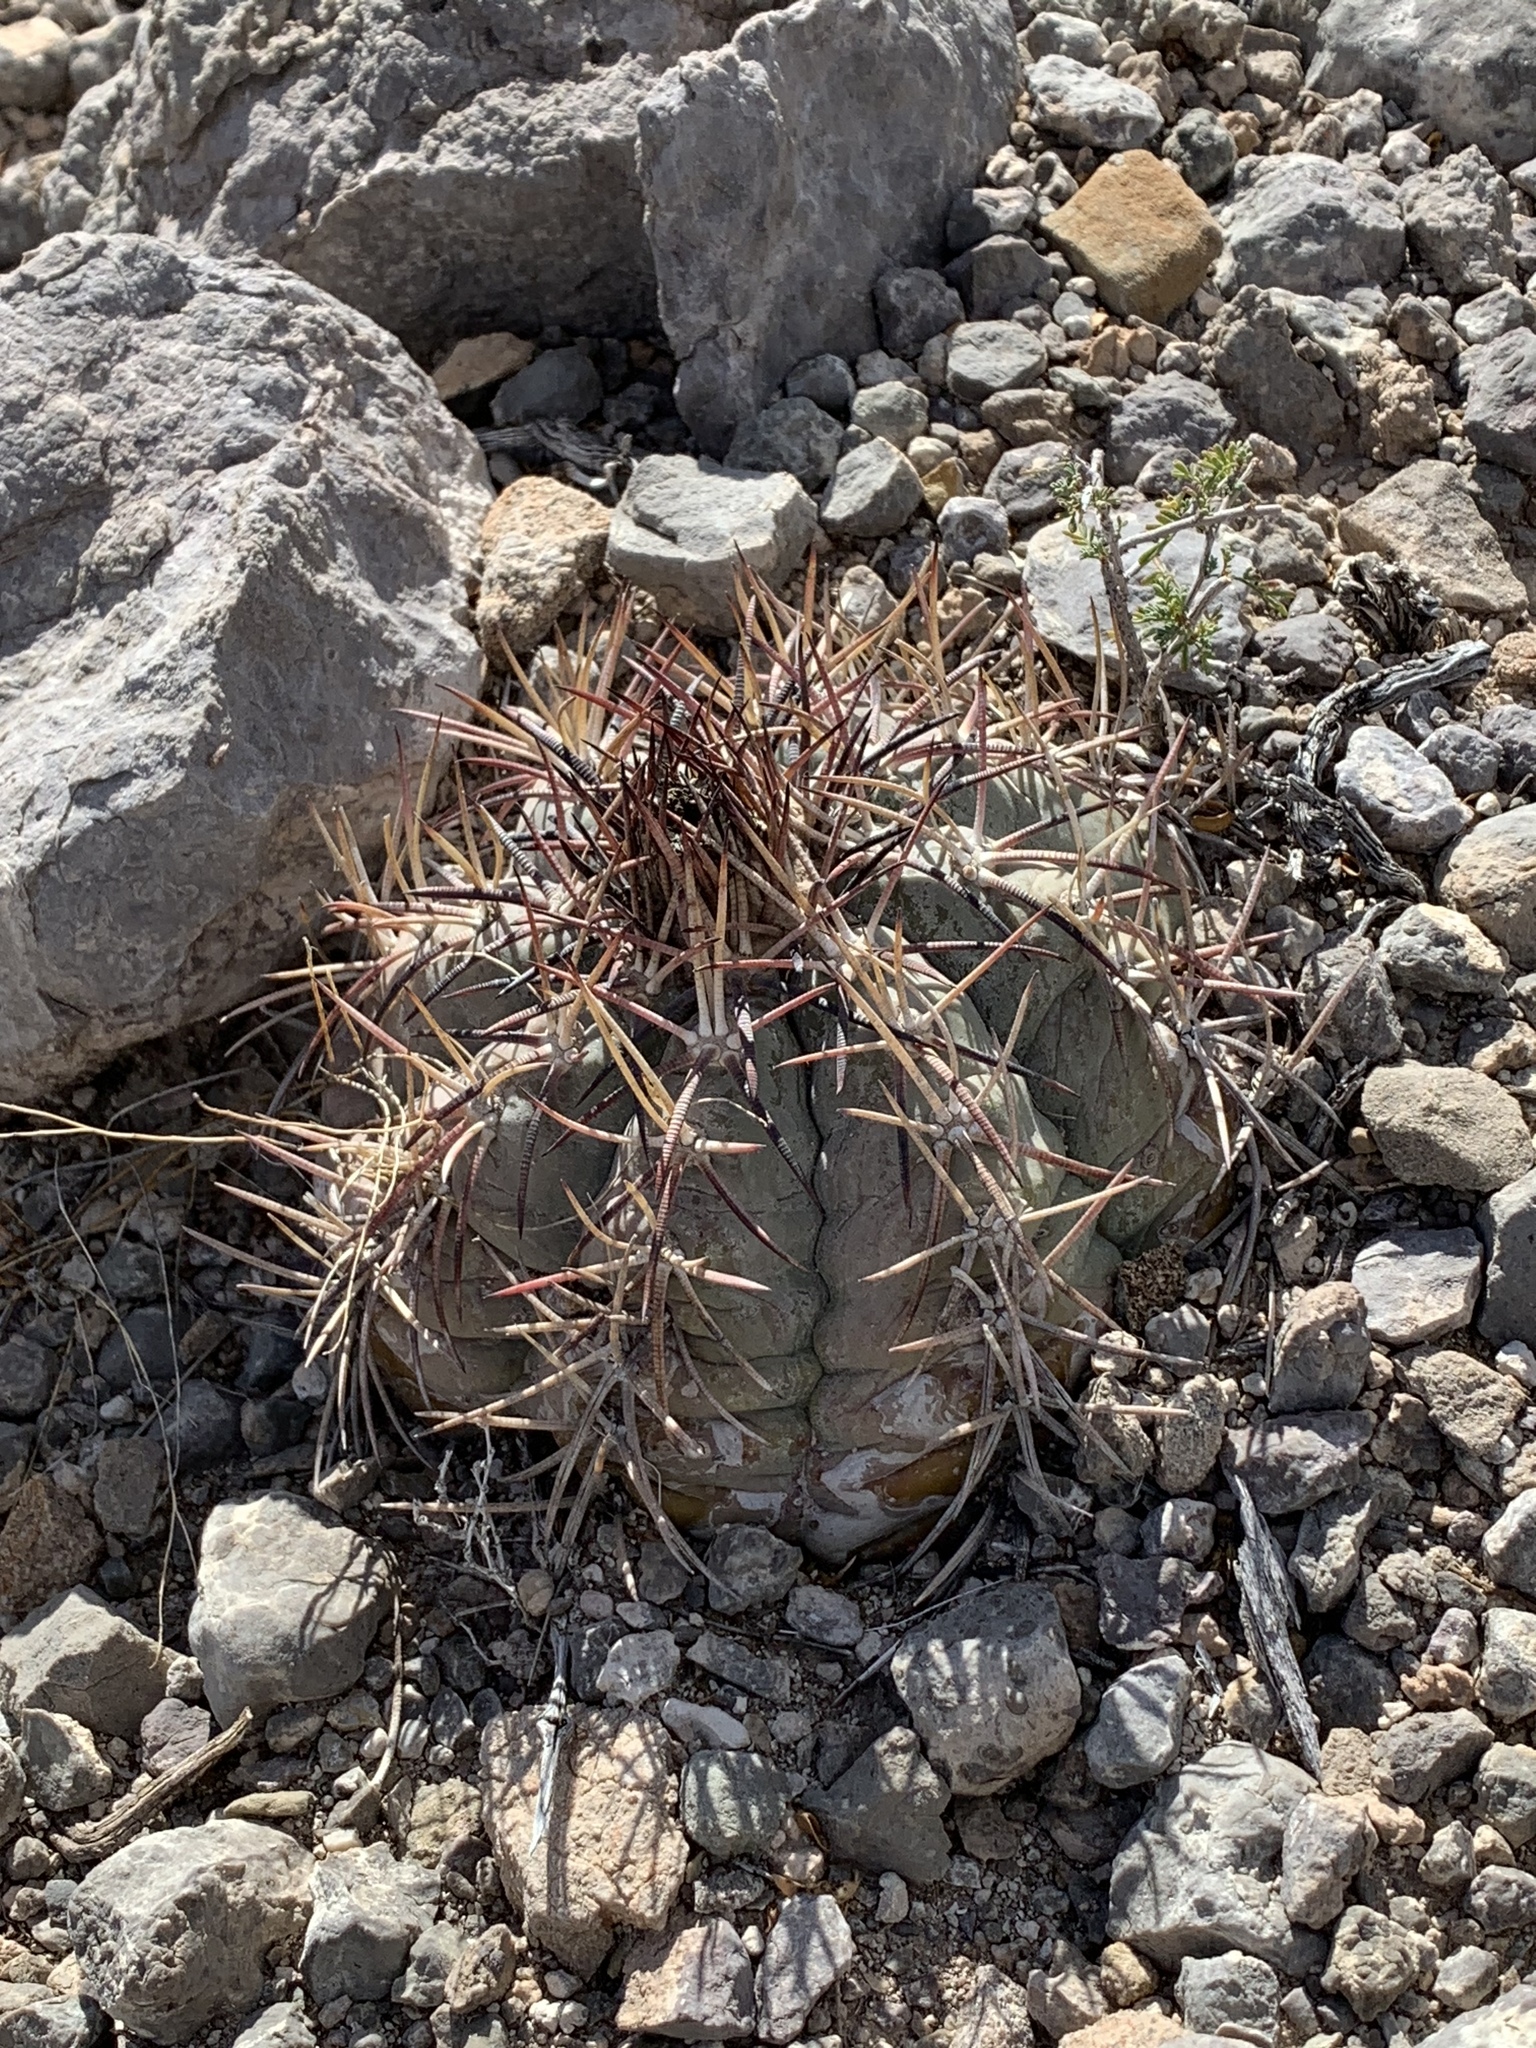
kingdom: Plantae
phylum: Tracheophyta
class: Magnoliopsida
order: Caryophyllales
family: Cactaceae
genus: Echinocactus
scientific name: Echinocactus horizonthalonius
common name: Devilshead
